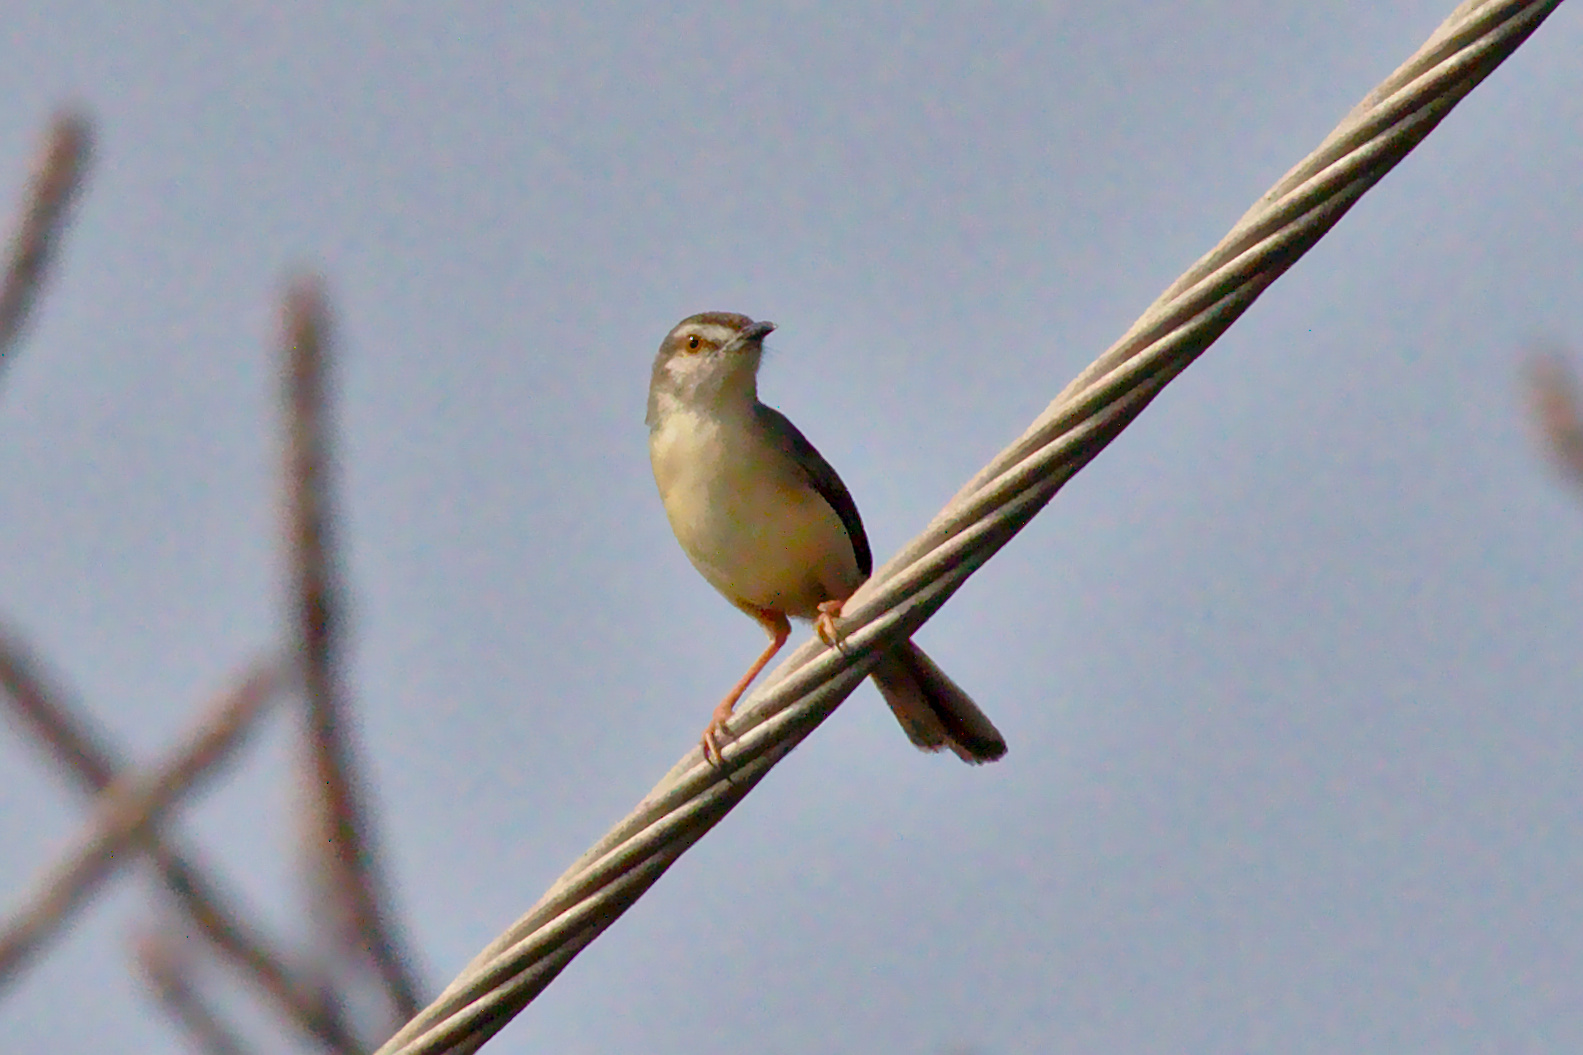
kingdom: Animalia
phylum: Chordata
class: Aves
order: Passeriformes
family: Cisticolidae
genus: Prinia
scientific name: Prinia inornata
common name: Plain prinia
